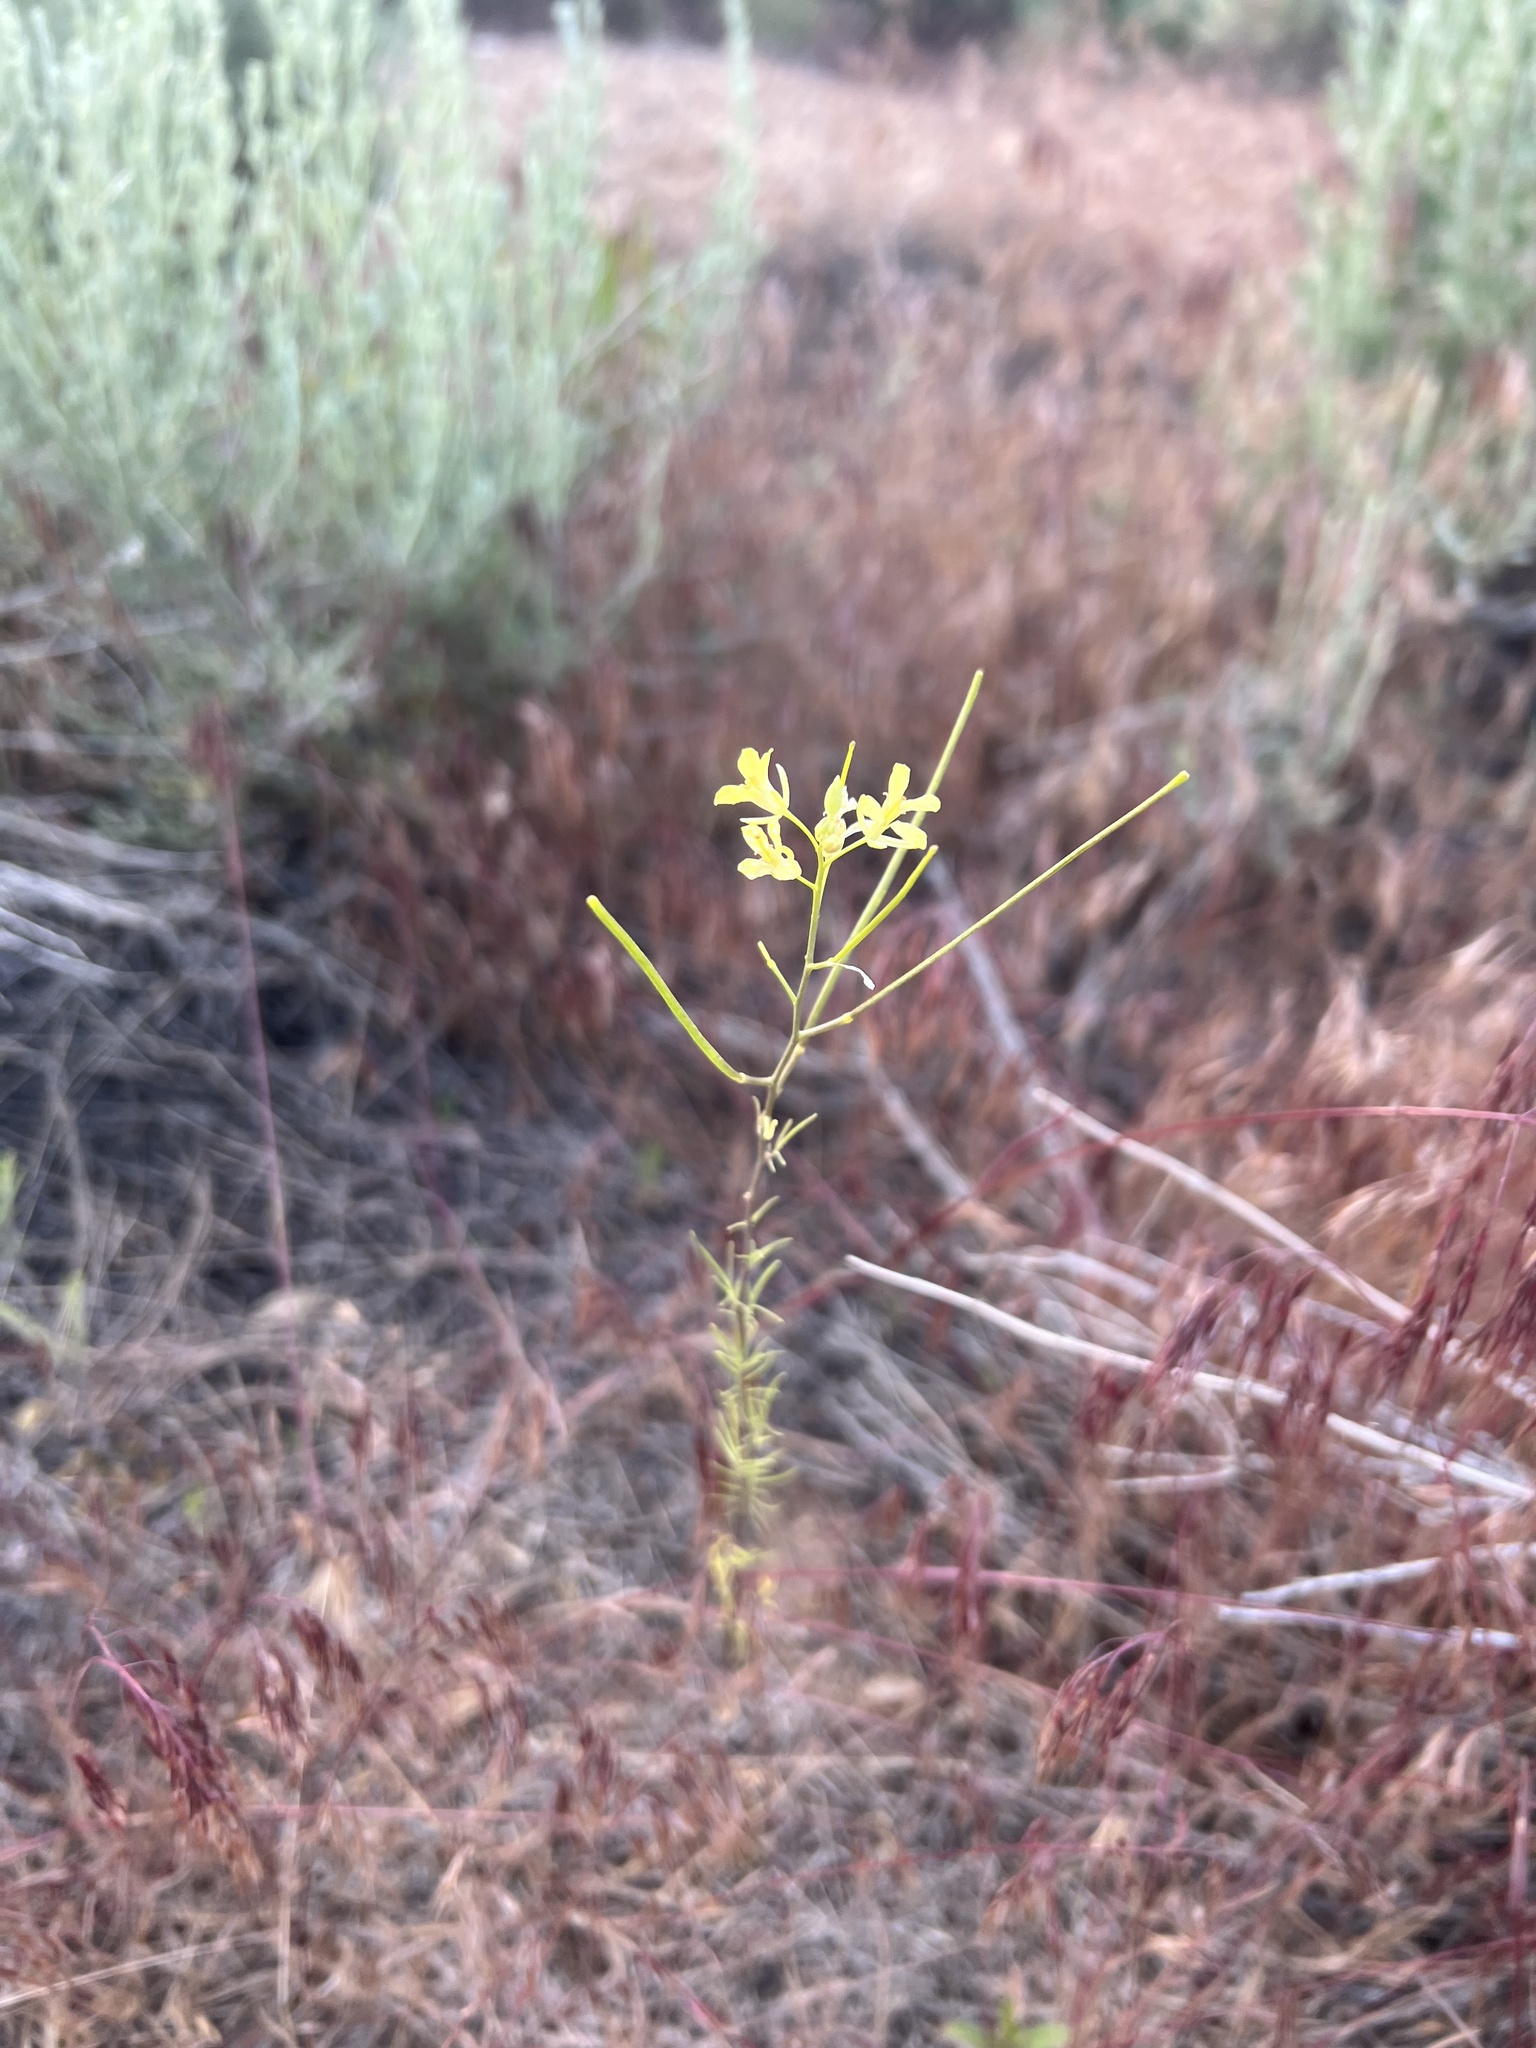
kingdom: Plantae
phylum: Tracheophyta
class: Magnoliopsida
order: Brassicales
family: Brassicaceae
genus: Sisymbrium
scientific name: Sisymbrium altissimum
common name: Tall rocket
